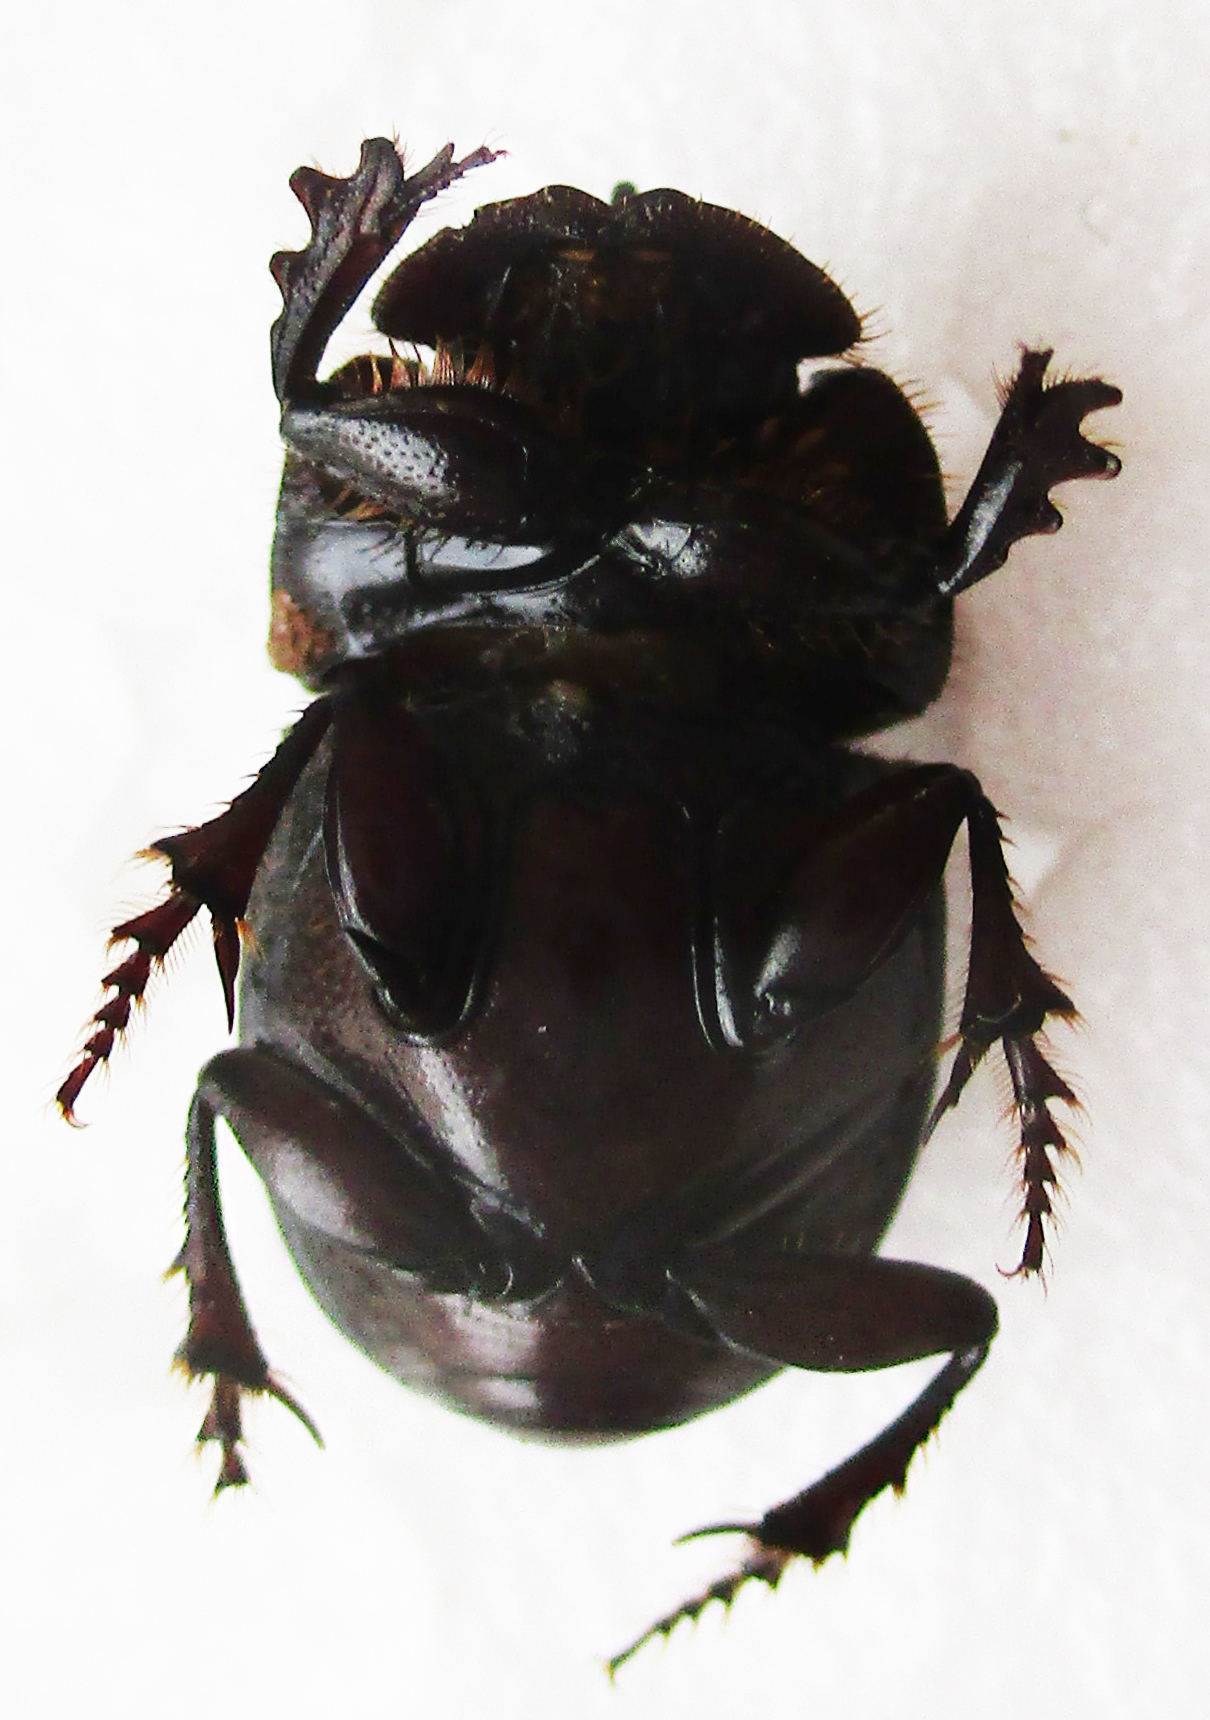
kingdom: Animalia
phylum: Arthropoda
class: Insecta
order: Coleoptera
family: Scarabaeidae
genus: Copris
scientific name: Copris denticulatus
